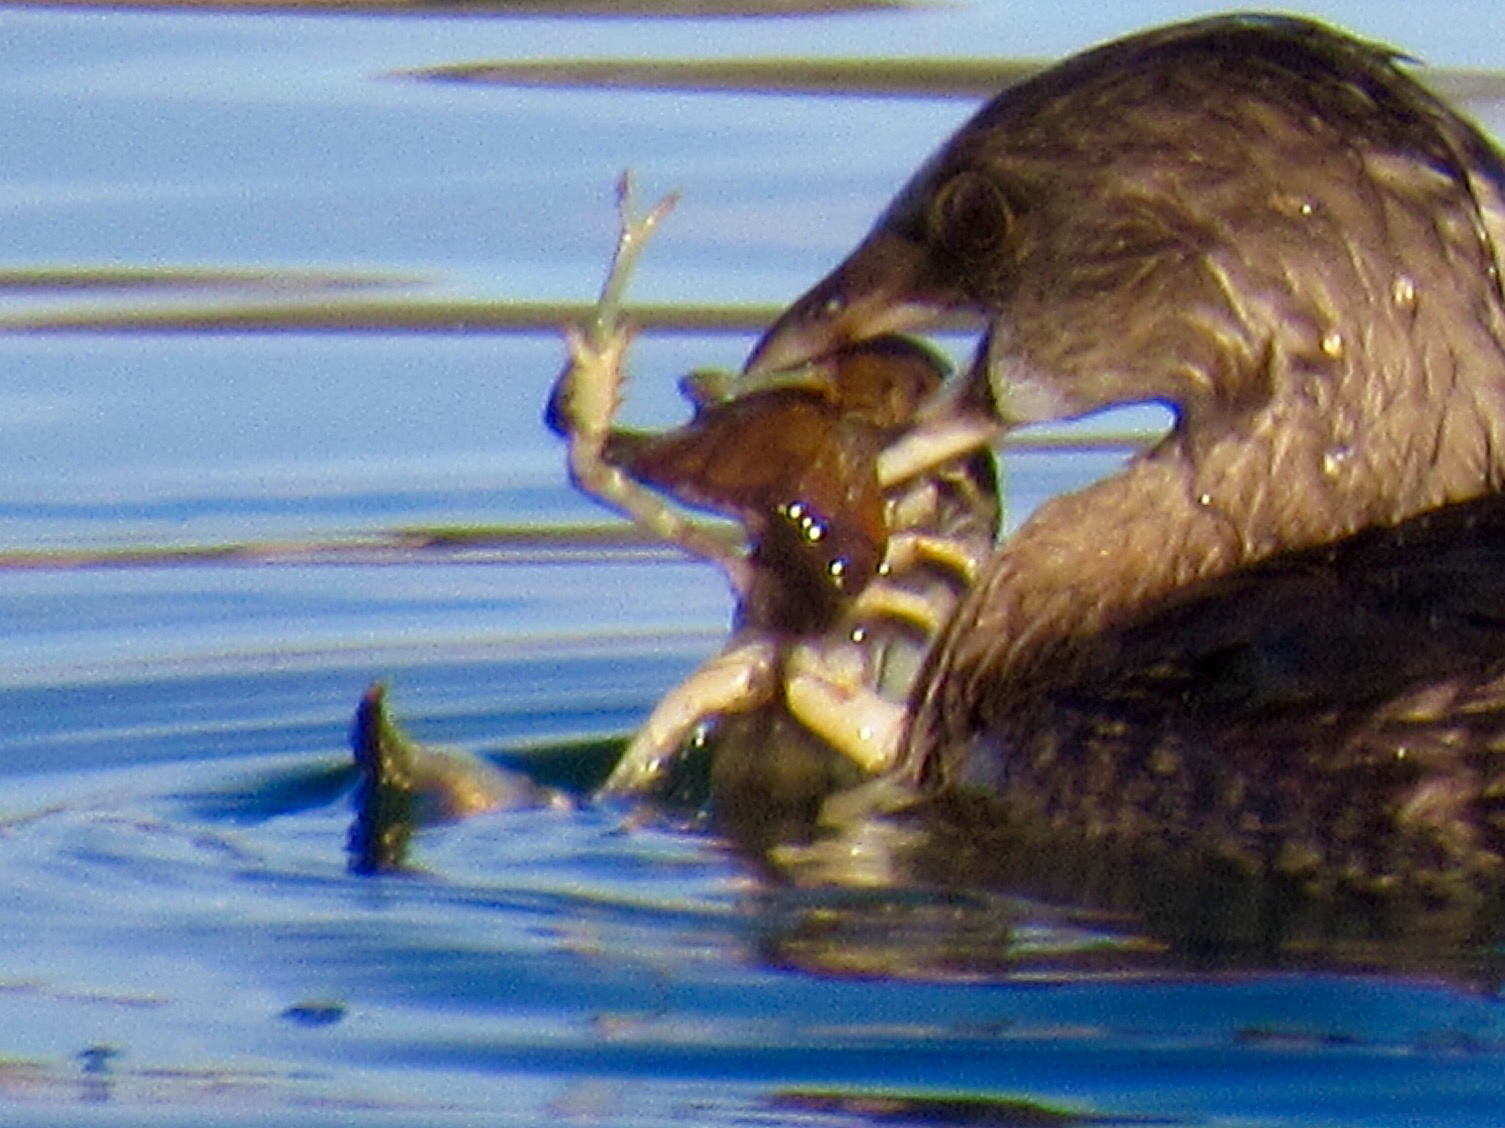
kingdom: Animalia
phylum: Arthropoda
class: Malacostraca
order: Decapoda
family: Cambaridae
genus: Faxonius
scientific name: Faxonius virilis
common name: Virile crayfish
